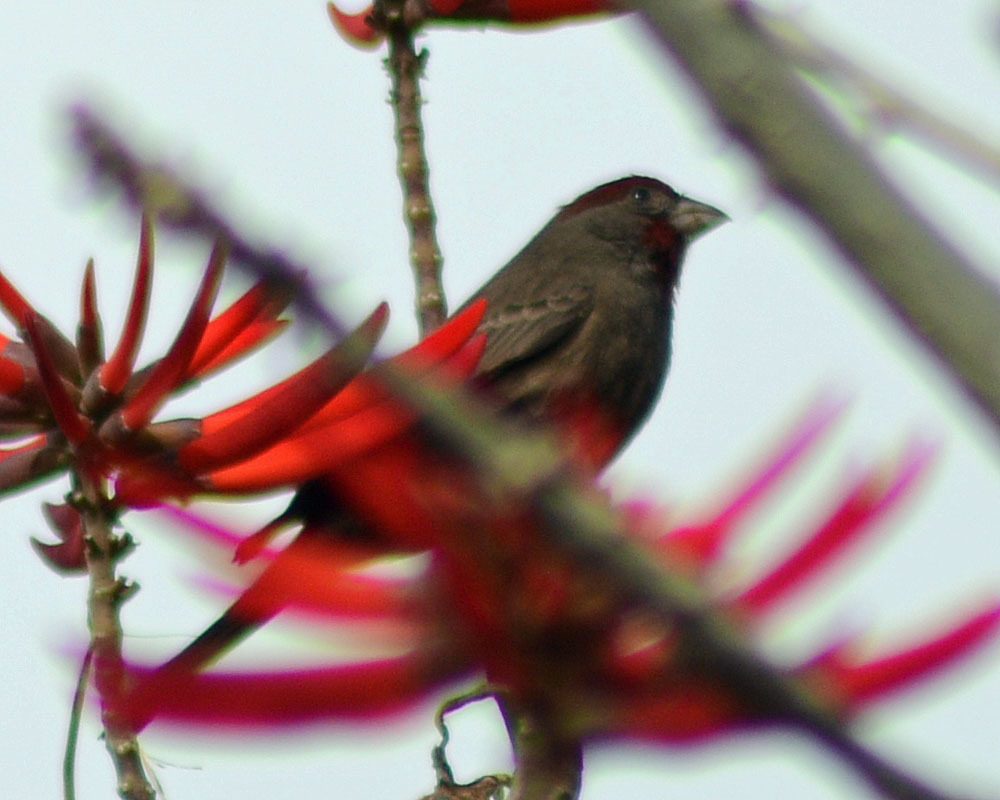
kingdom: Animalia
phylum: Chordata
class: Aves
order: Passeriformes
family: Fringillidae
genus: Haemorhous
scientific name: Haemorhous mexicanus
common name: House finch
